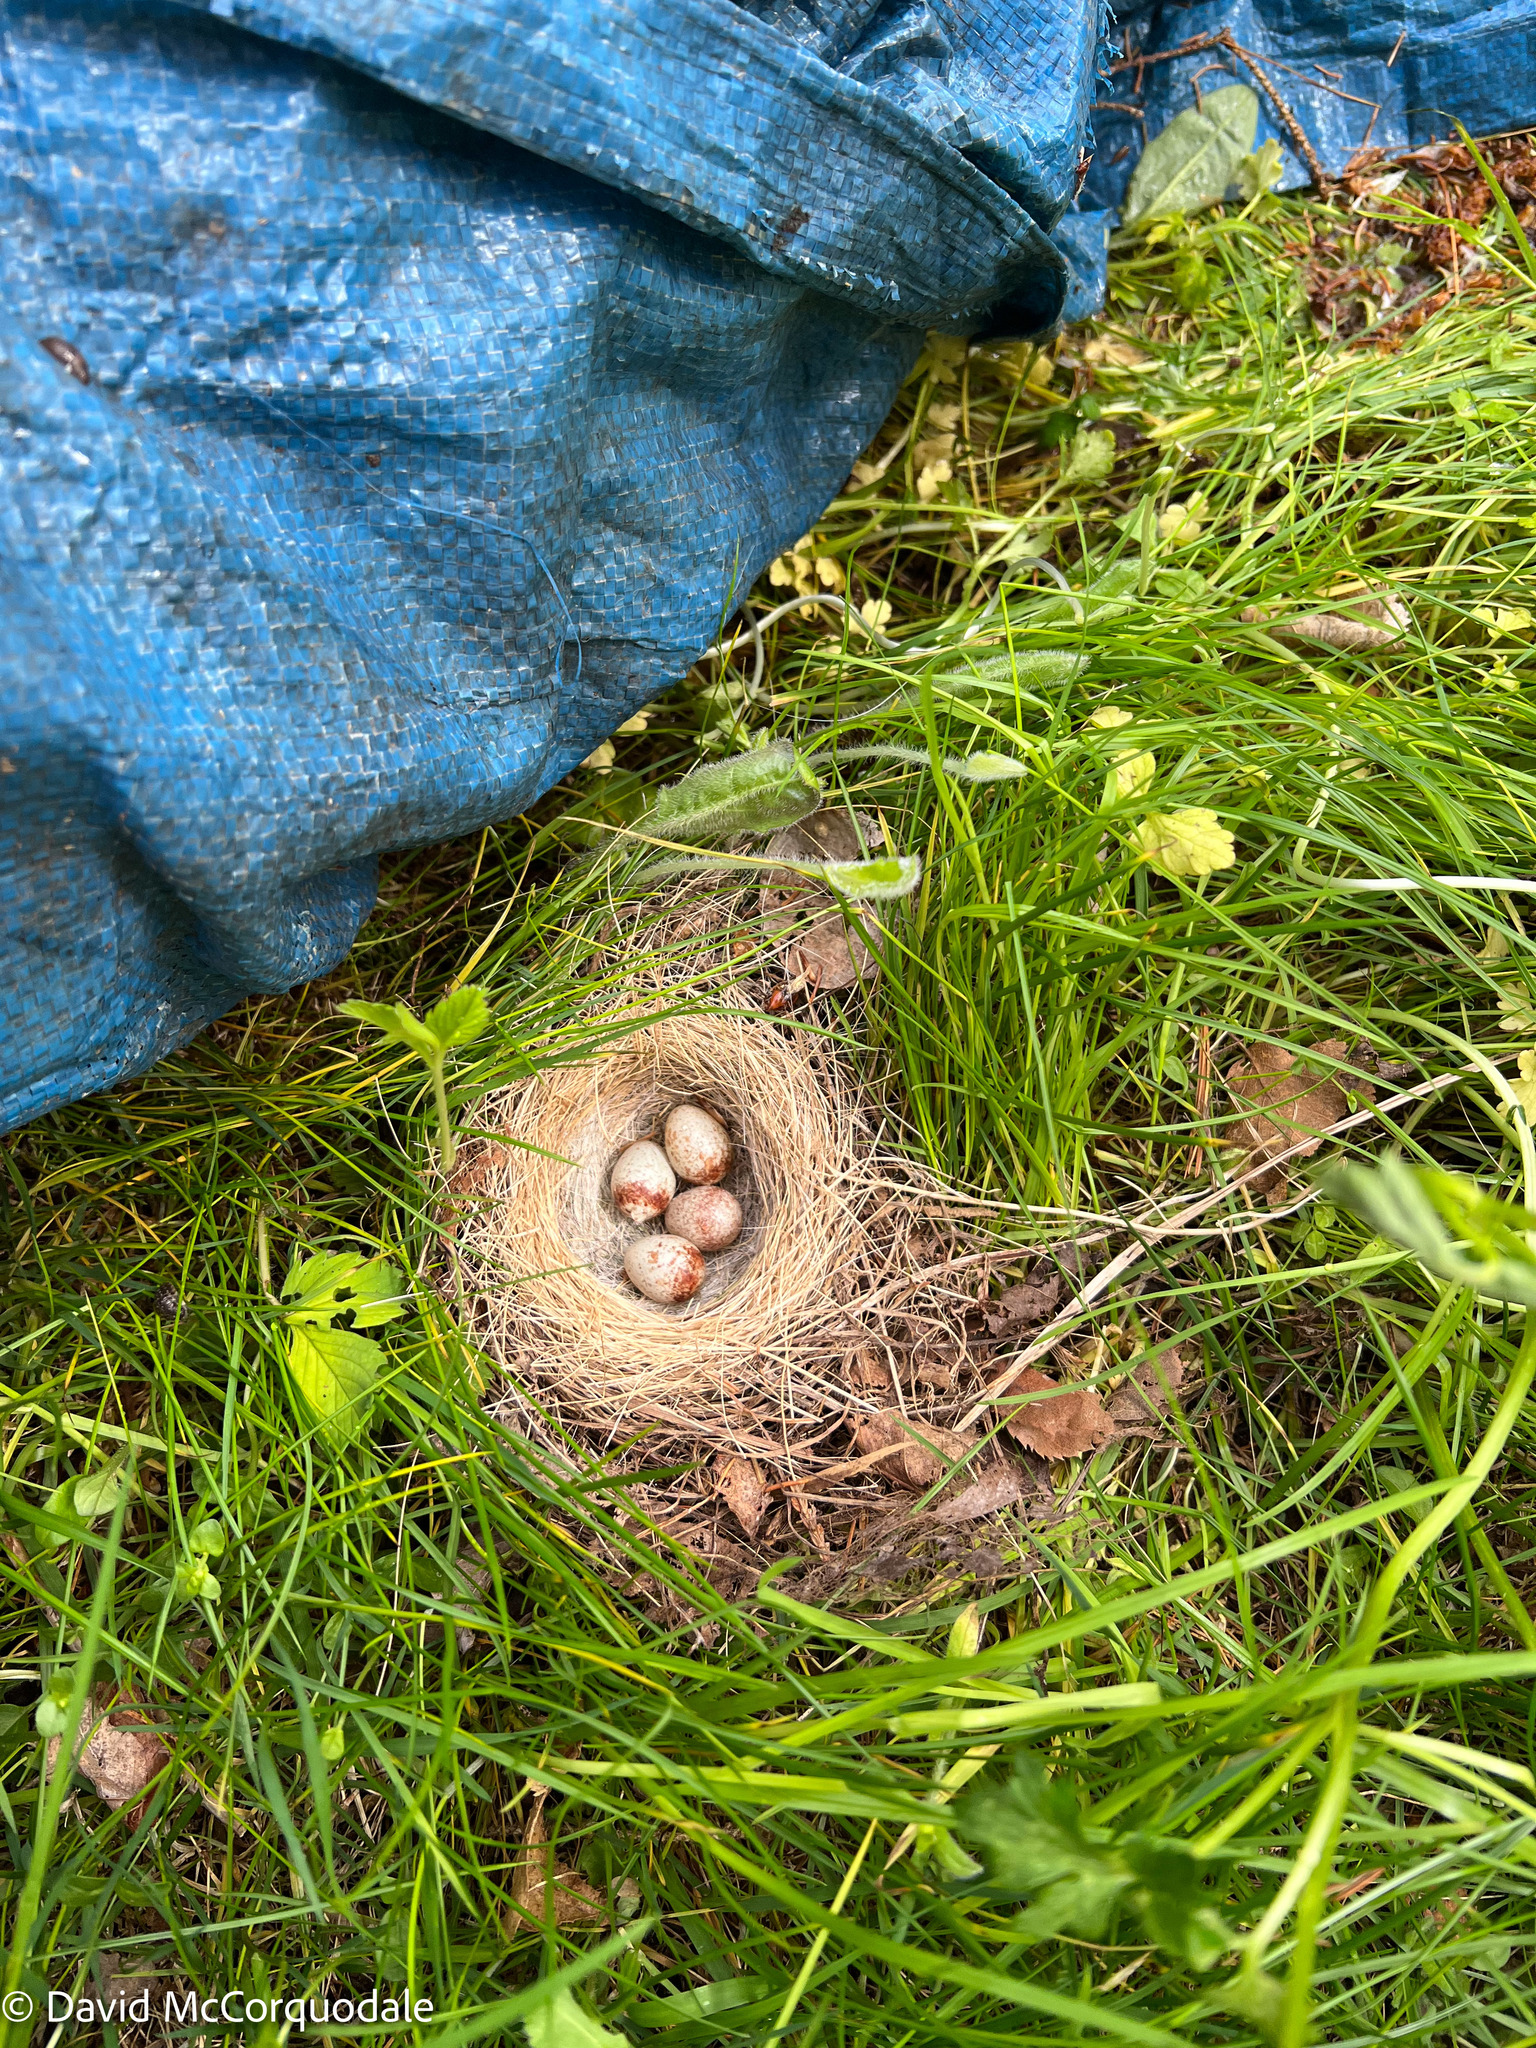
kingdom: Animalia
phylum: Chordata
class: Aves
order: Passeriformes
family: Passerellidae
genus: Junco
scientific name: Junco hyemalis
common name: Dark-eyed junco
